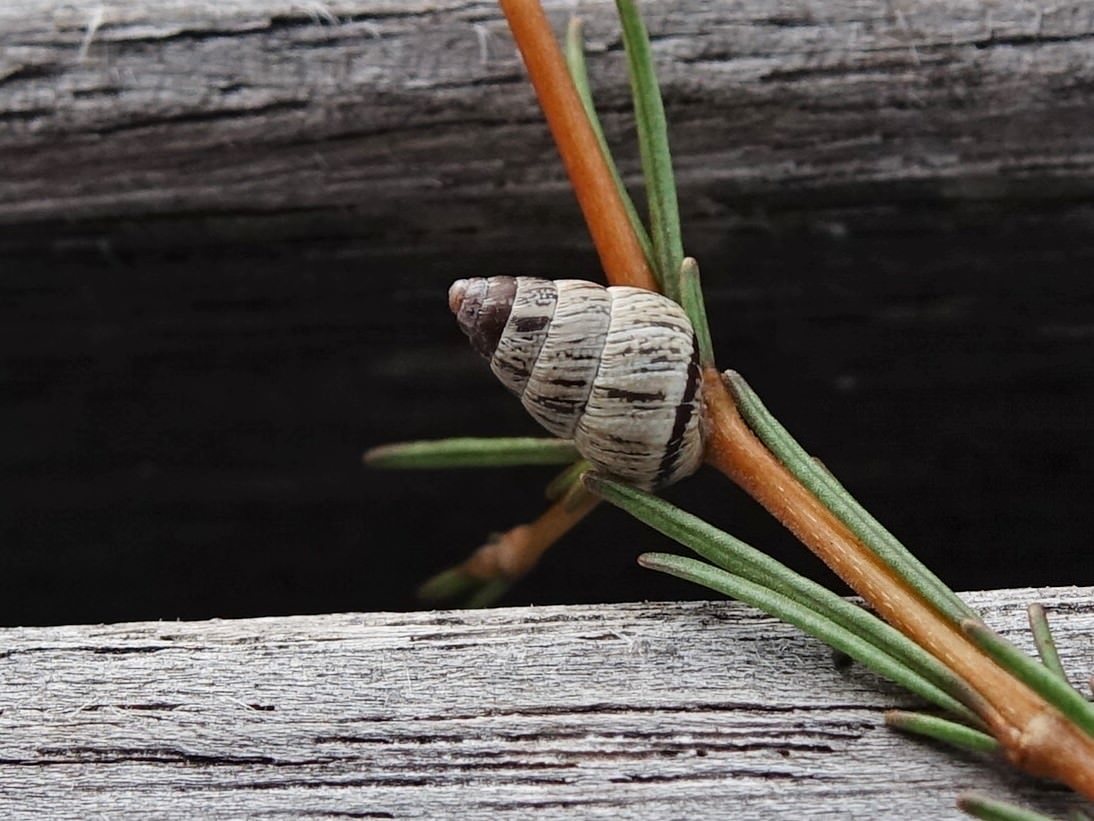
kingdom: Animalia
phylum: Mollusca
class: Gastropoda
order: Stylommatophora
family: Geomitridae
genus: Cochlicella
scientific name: Cochlicella barbara
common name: Potbellied helicellid
